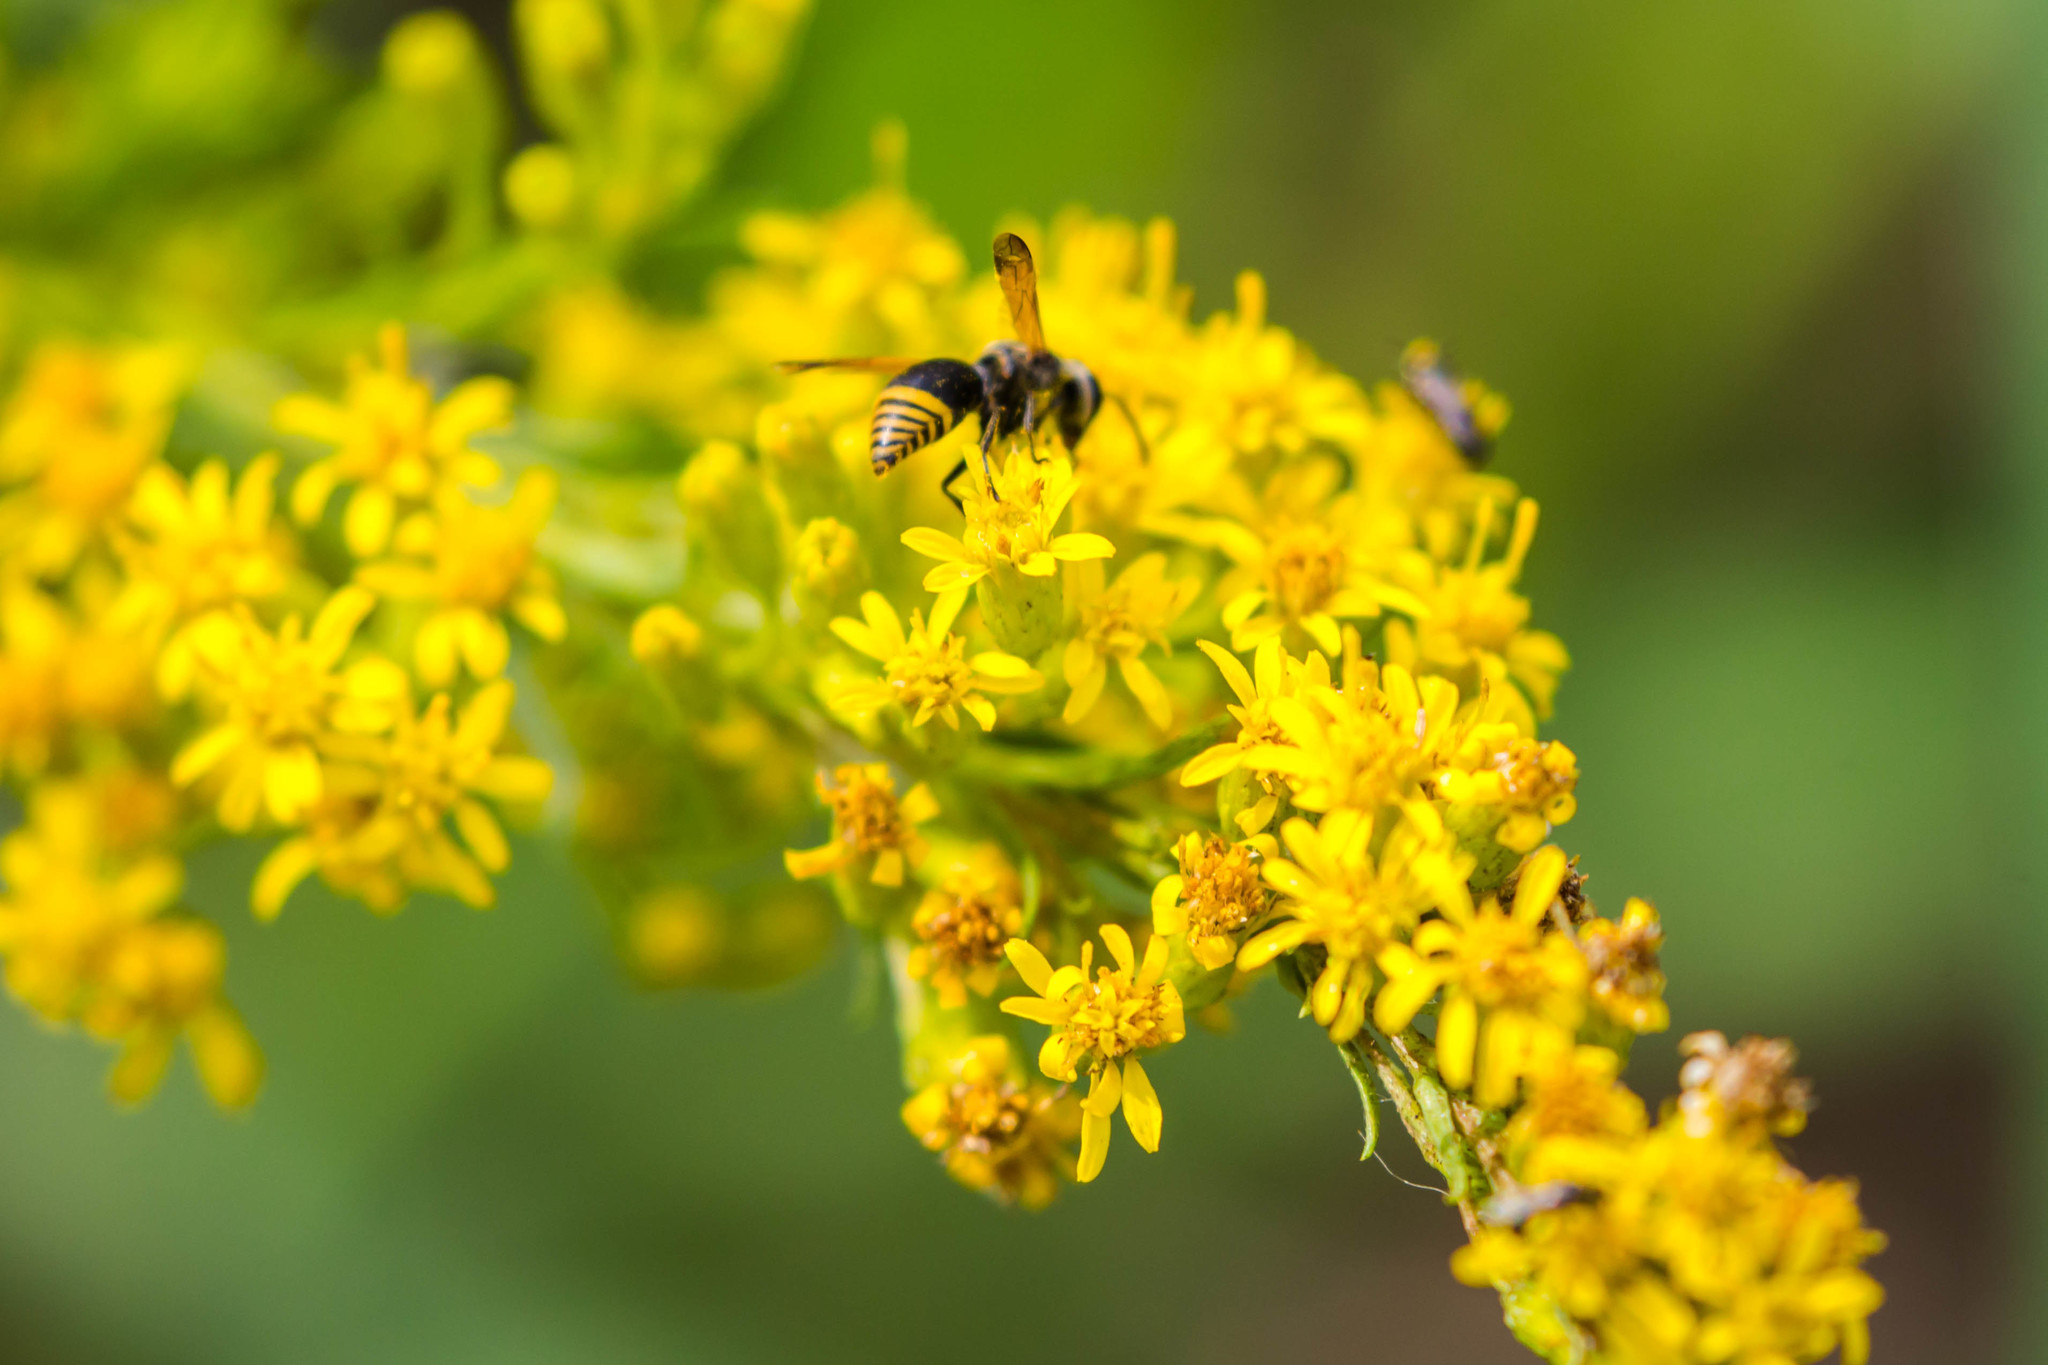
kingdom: Animalia
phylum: Arthropoda
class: Insecta
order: Hymenoptera
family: Eumenidae
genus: Pachodynerus
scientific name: Pachodynerus
